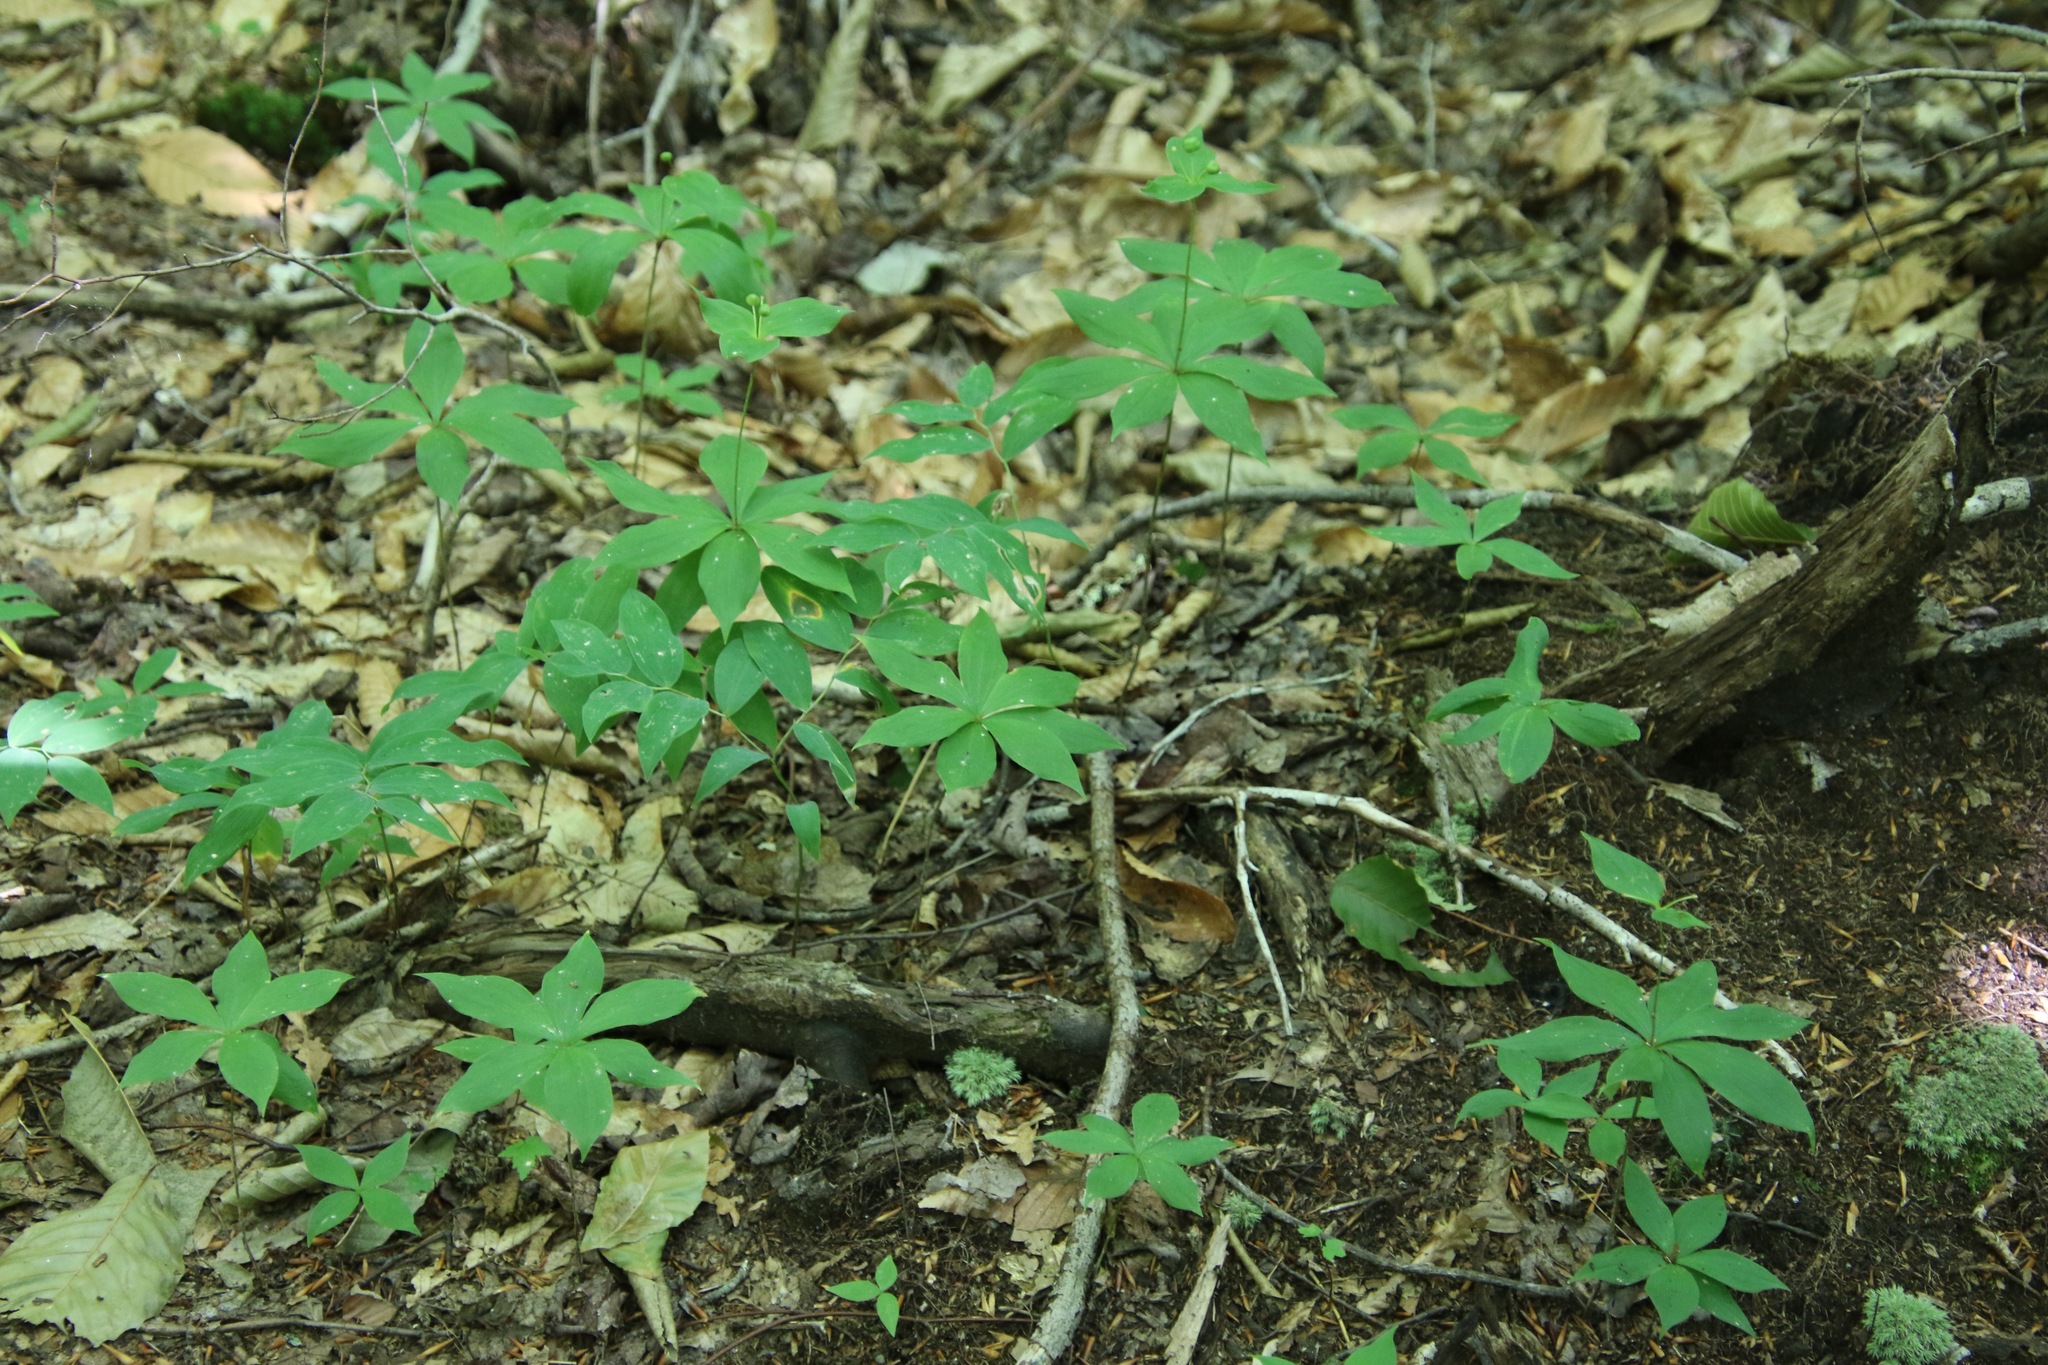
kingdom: Plantae
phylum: Tracheophyta
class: Liliopsida
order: Liliales
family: Liliaceae
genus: Medeola
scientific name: Medeola virginiana
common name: Indian cucumber-root
